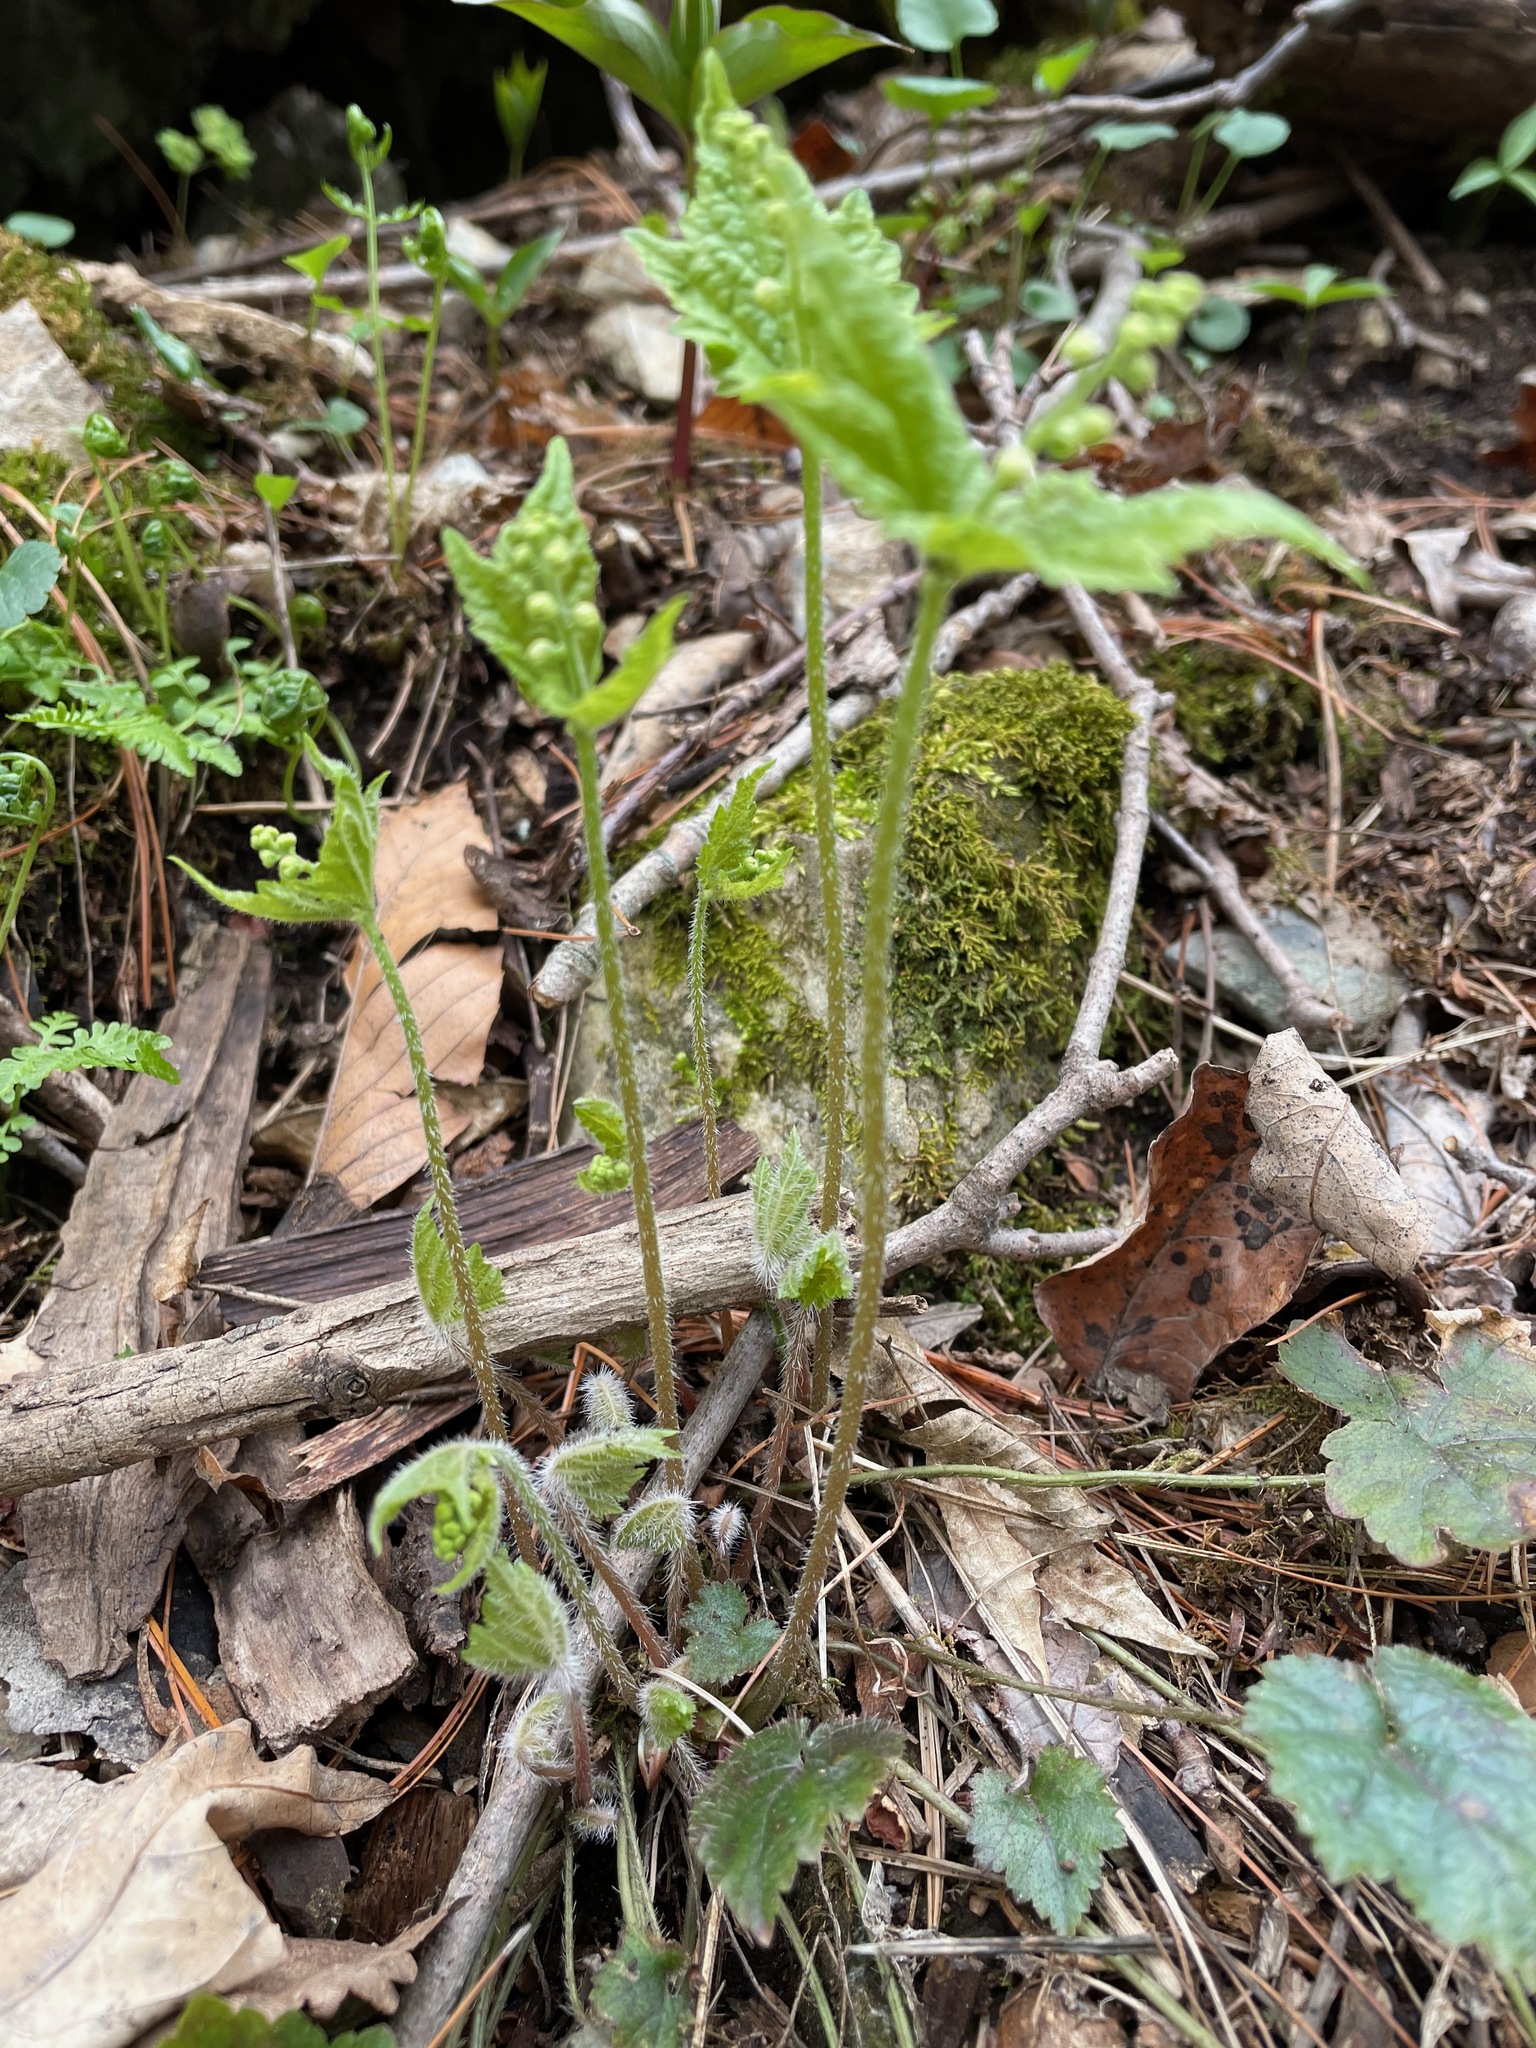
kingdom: Plantae
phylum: Tracheophyta
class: Magnoliopsida
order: Saxifragales
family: Saxifragaceae
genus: Mitella
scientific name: Mitella diphylla
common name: Coolwort
